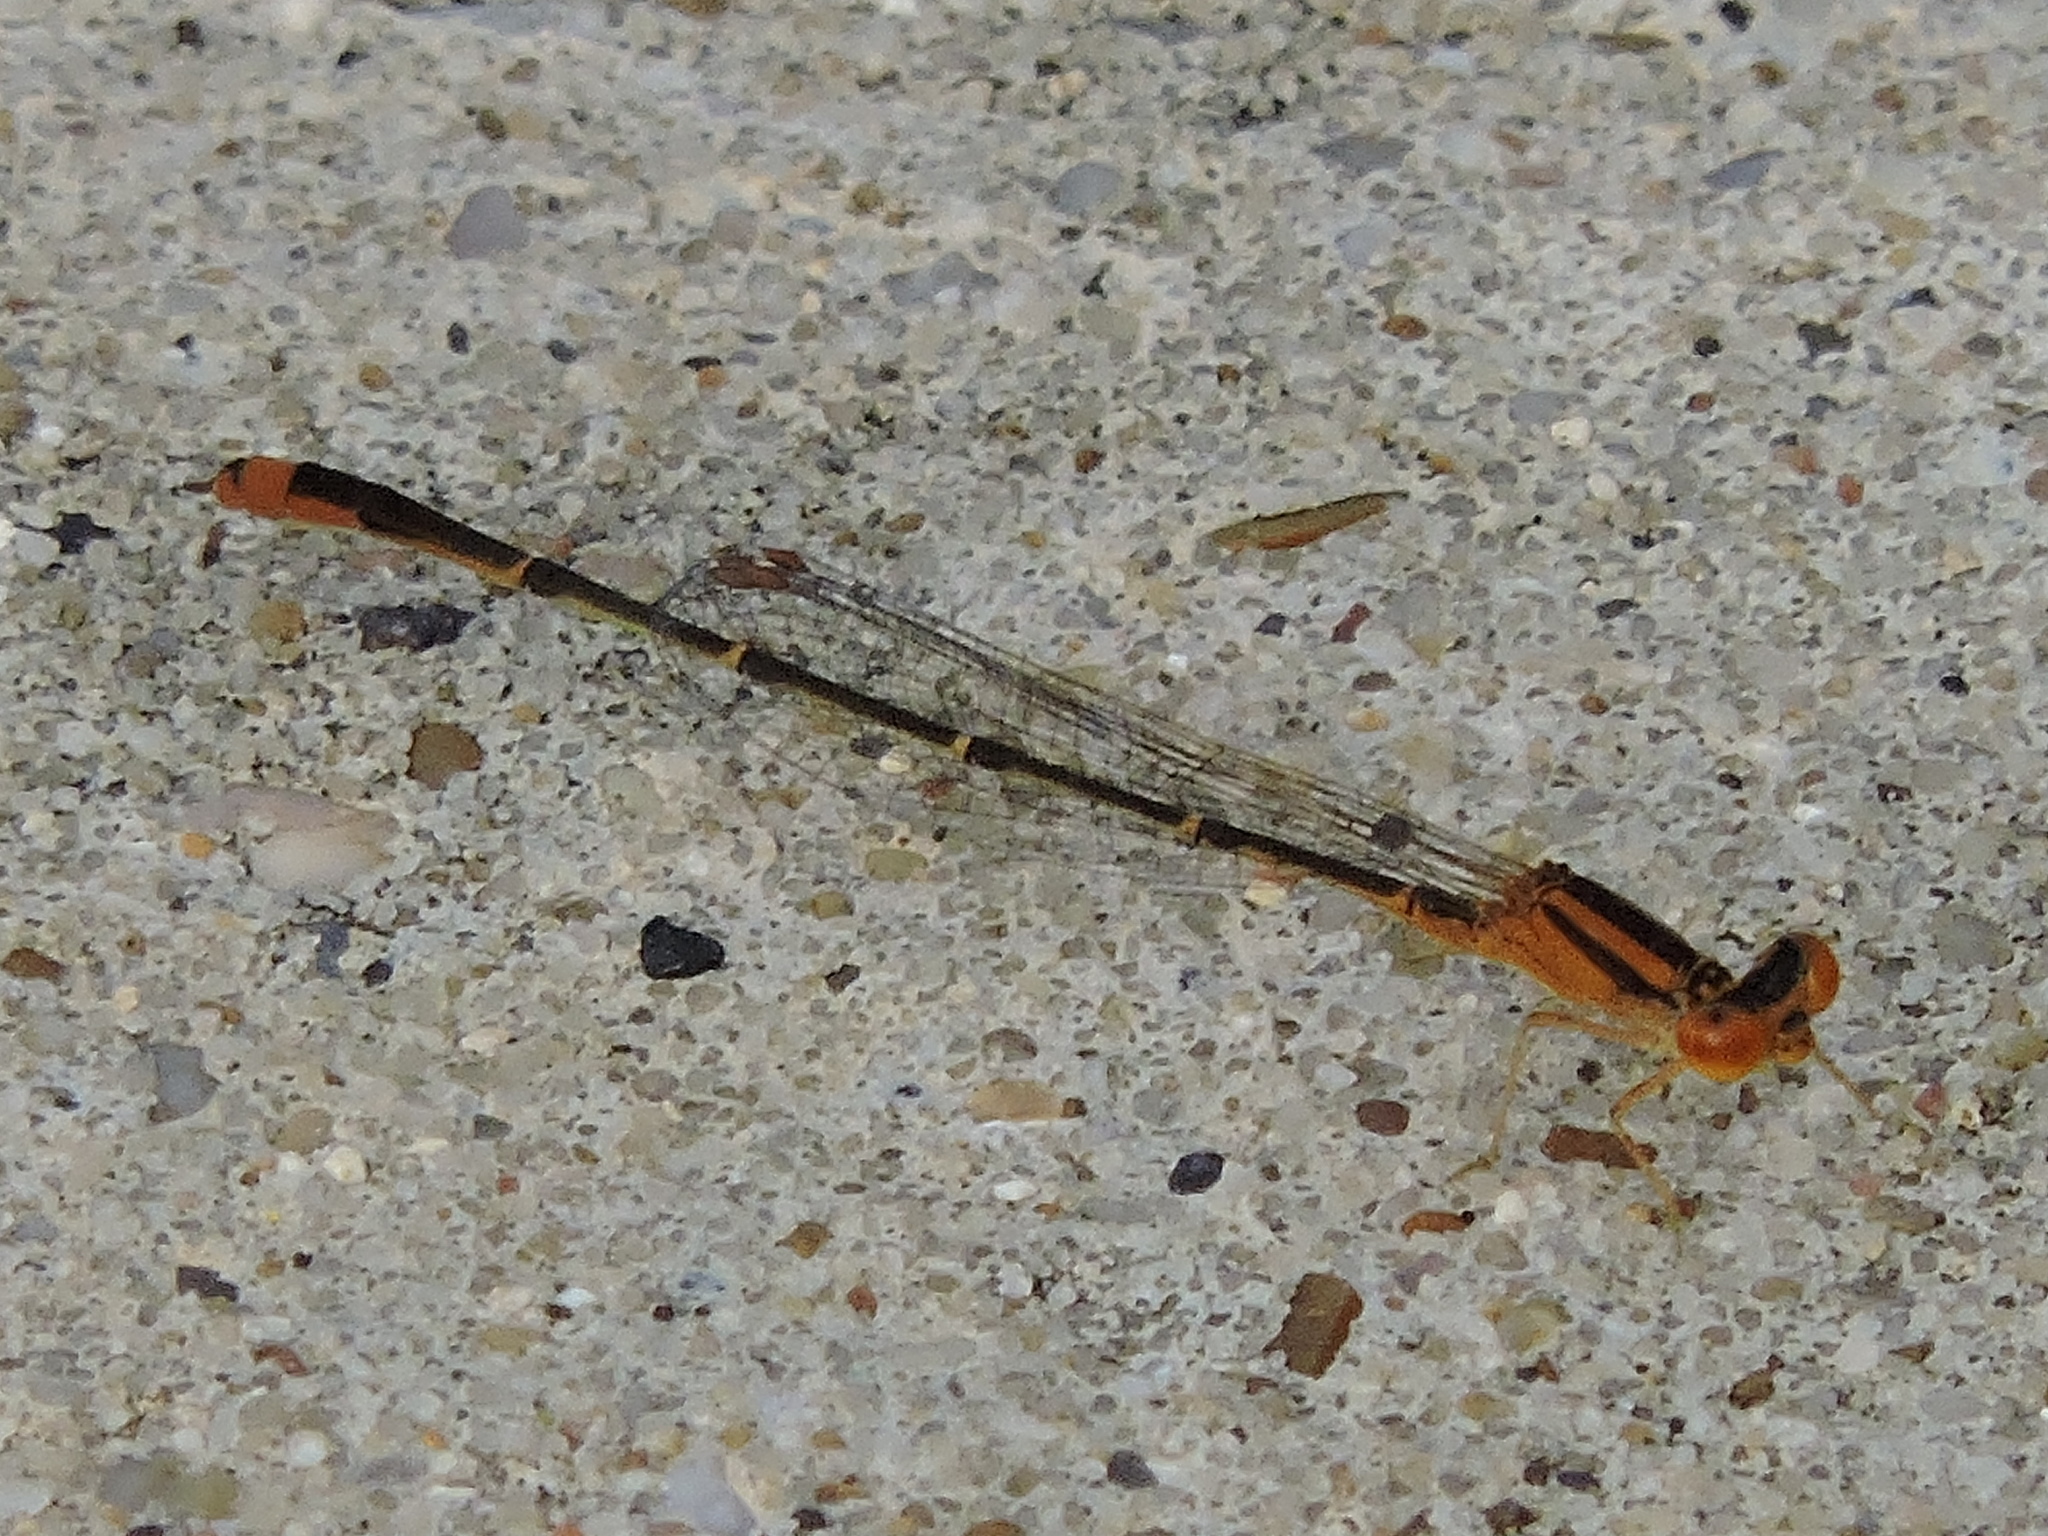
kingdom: Animalia
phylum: Arthropoda
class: Insecta
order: Odonata
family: Coenagrionidae
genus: Enallagma
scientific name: Enallagma signatum
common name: Orange bluet
